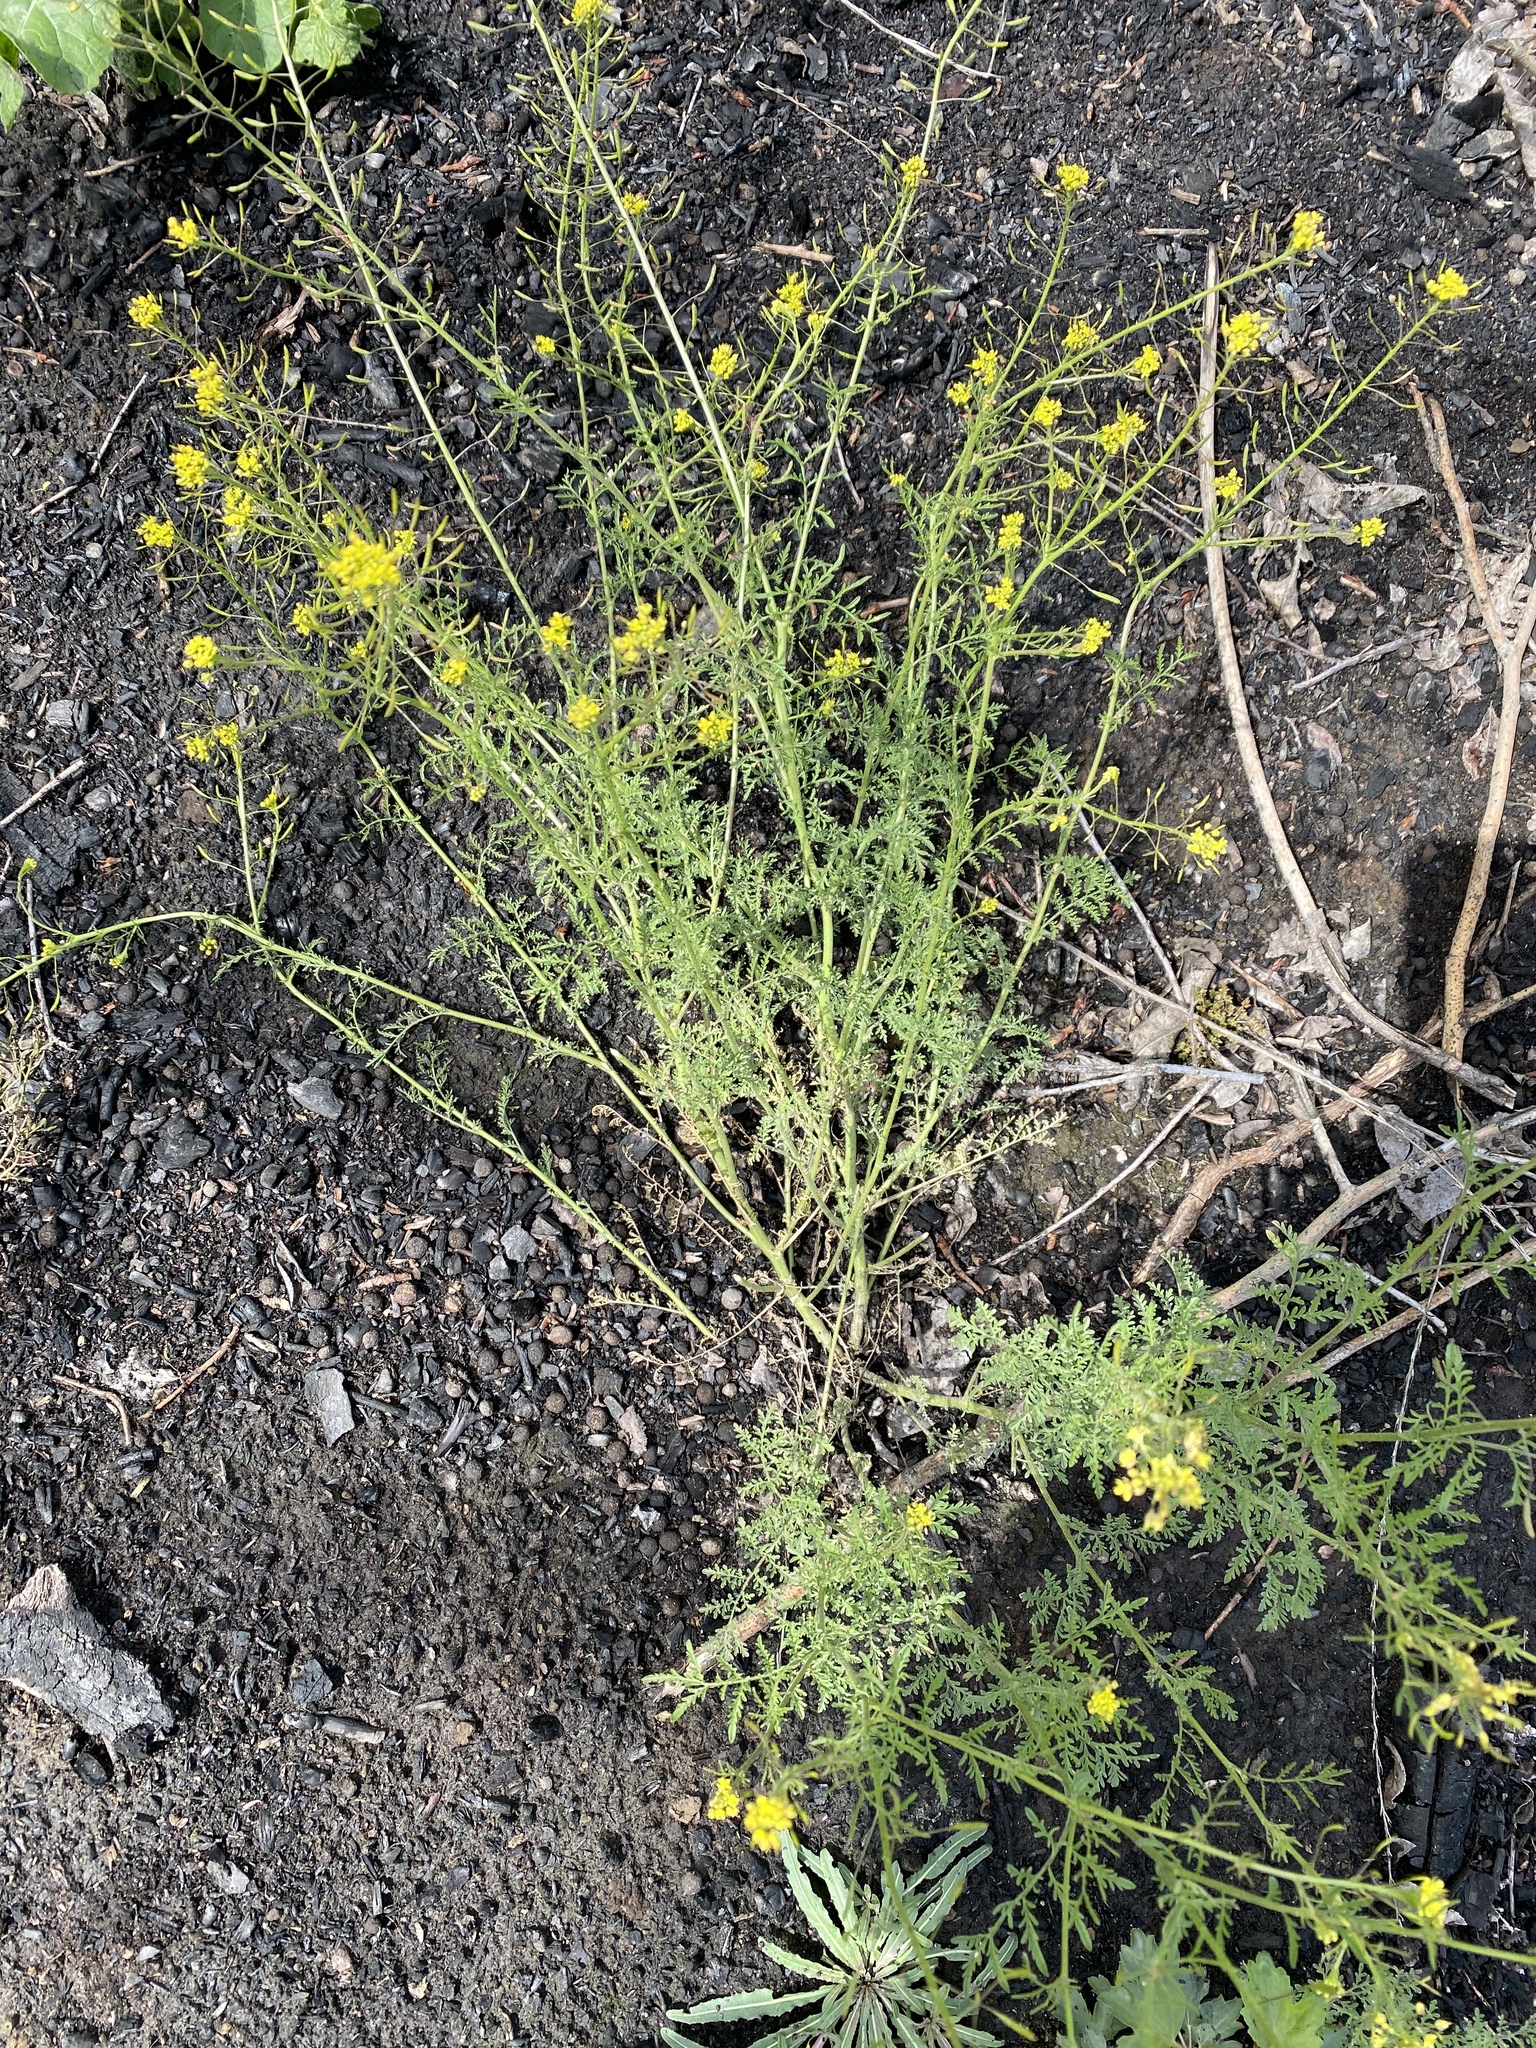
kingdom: Plantae
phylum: Tracheophyta
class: Magnoliopsida
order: Brassicales
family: Brassicaceae
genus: Descurainia
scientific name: Descurainia pinnata
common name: Western tansy mustard
